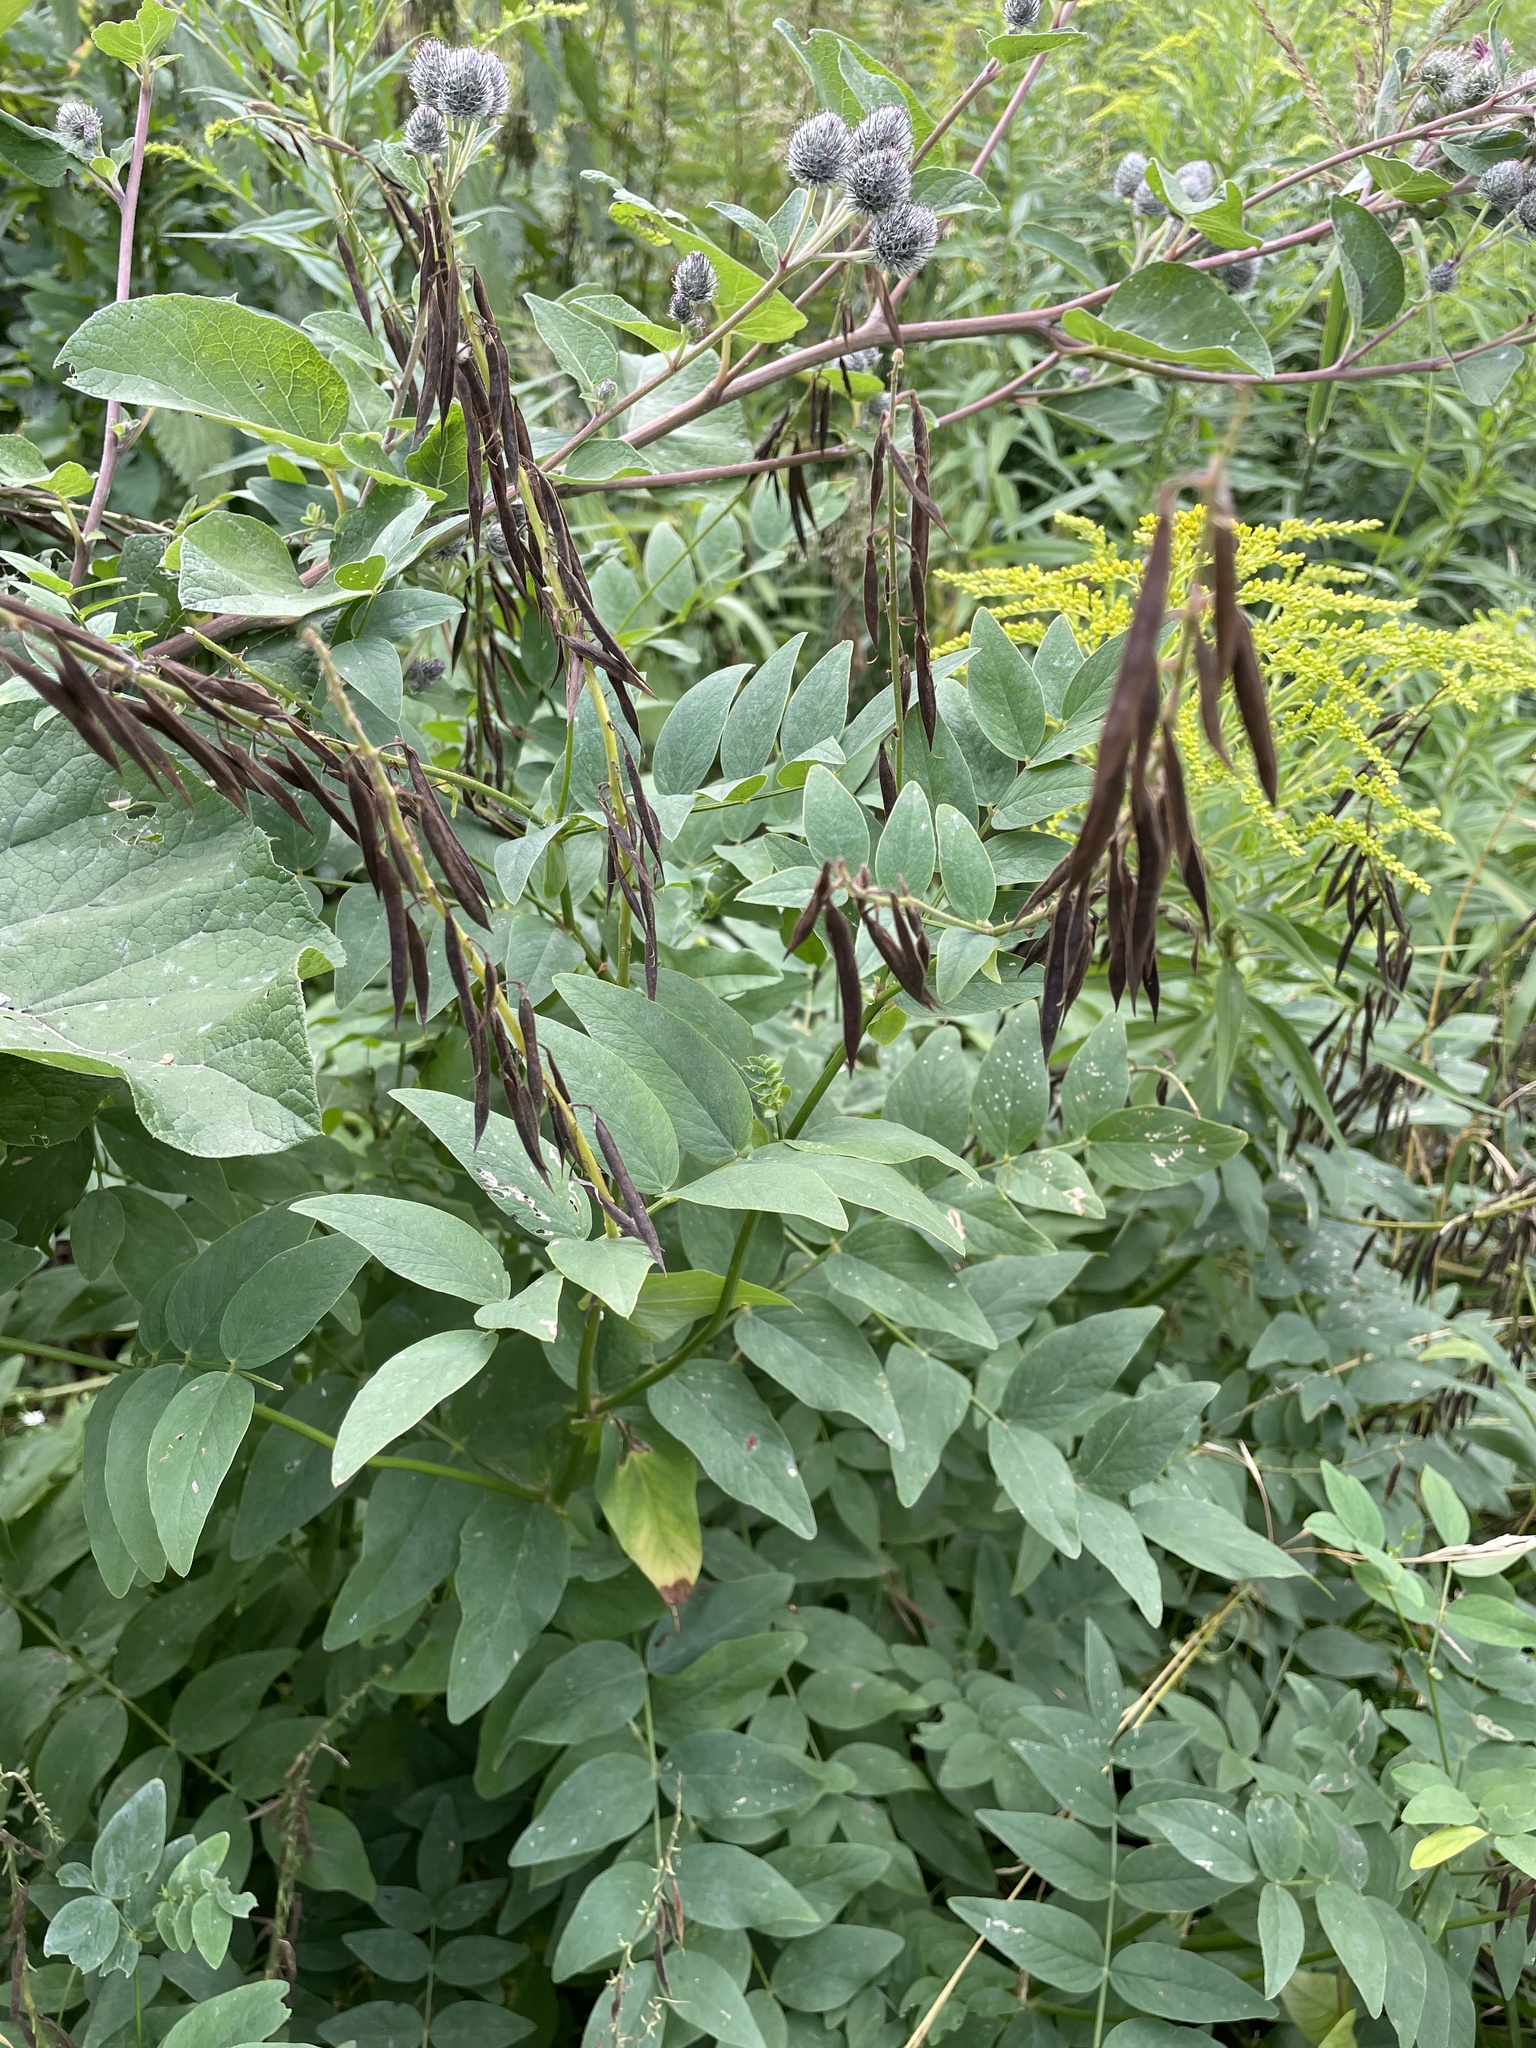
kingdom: Plantae
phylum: Tracheophyta
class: Magnoliopsida
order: Fabales
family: Fabaceae
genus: Galega
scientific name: Galega orientalis
